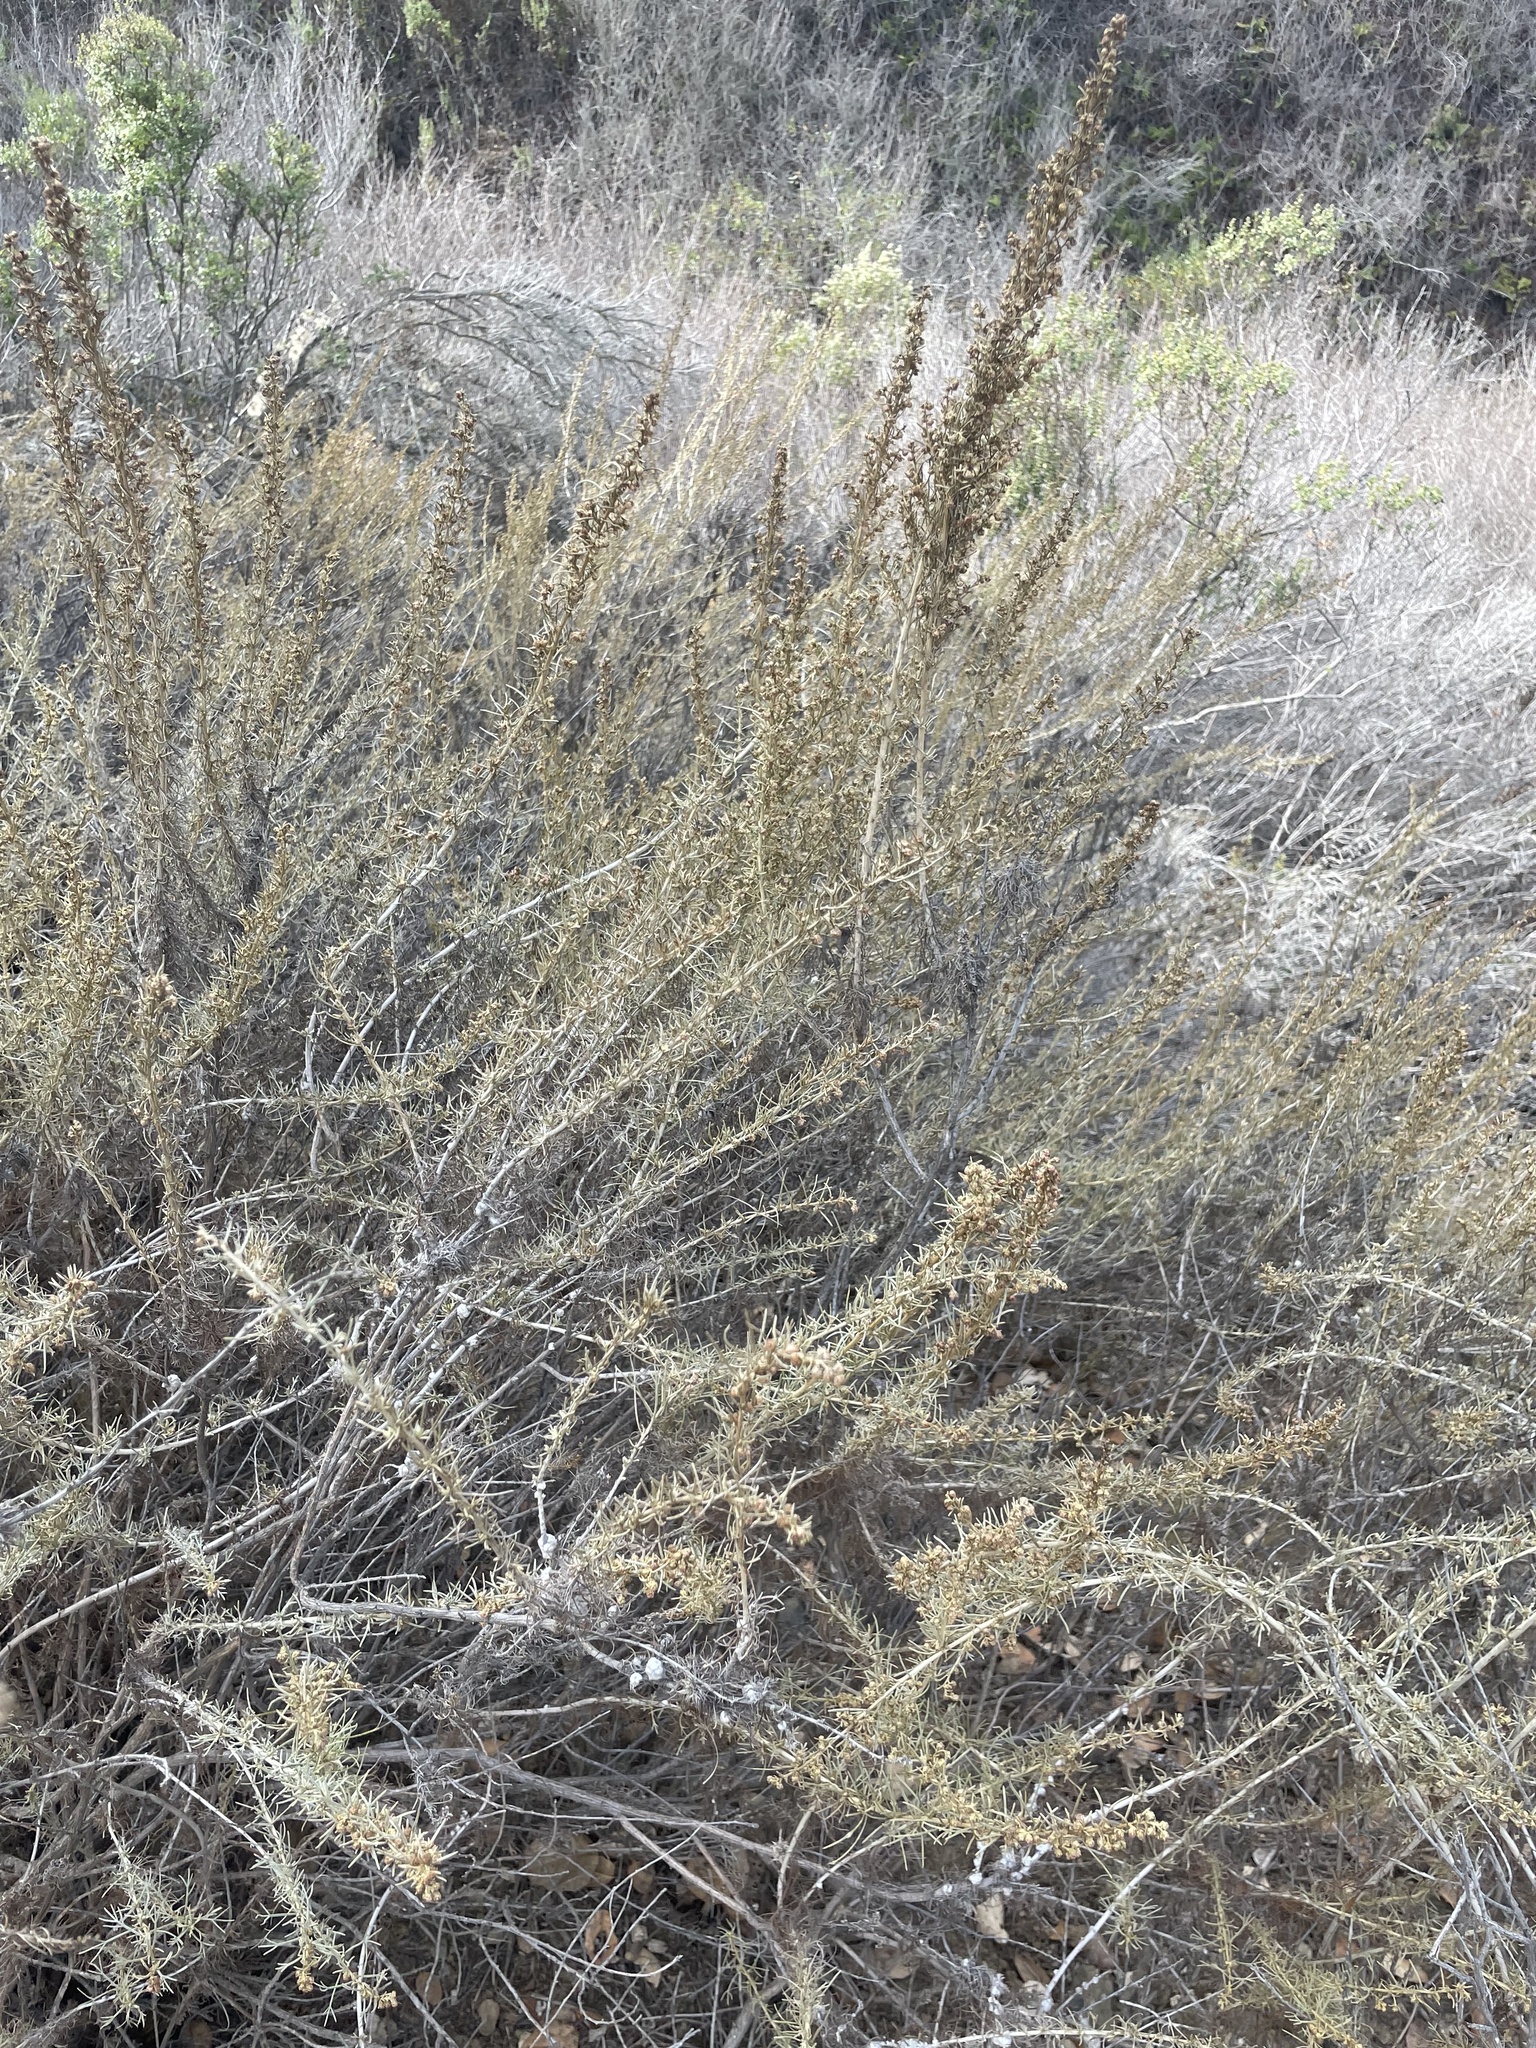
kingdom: Plantae
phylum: Tracheophyta
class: Magnoliopsida
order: Asterales
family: Asteraceae
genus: Artemisia
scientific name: Artemisia californica
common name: California sagebrush
